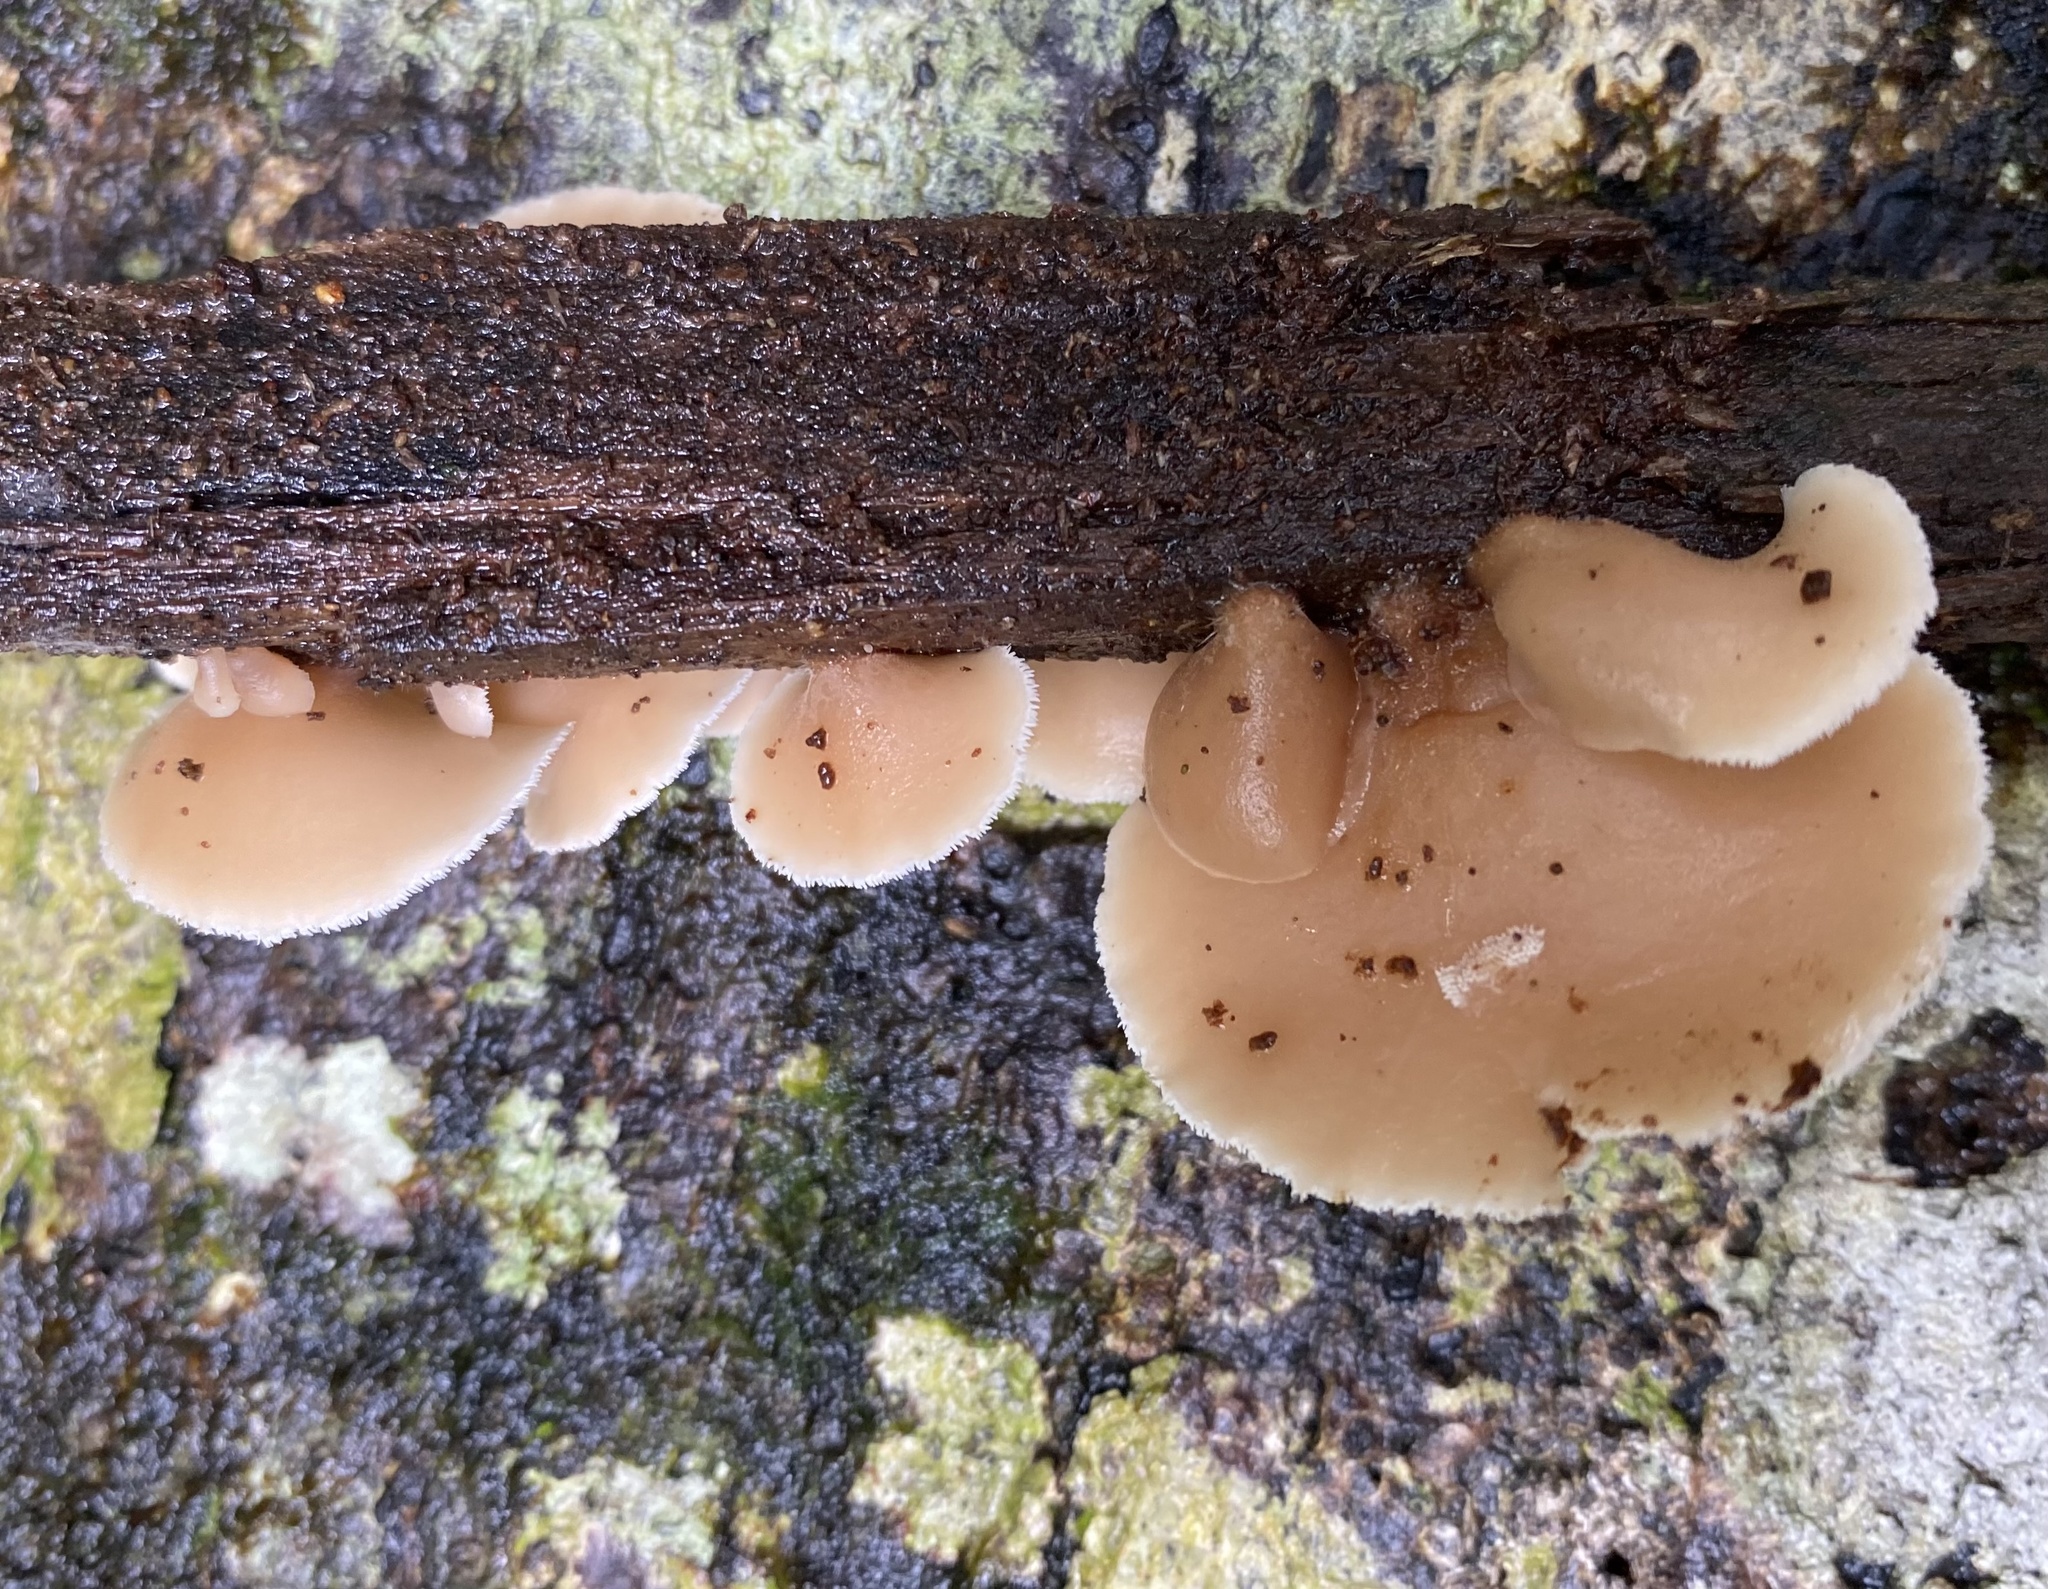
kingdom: Fungi
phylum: Basidiomycota
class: Agaricomycetes
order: Russulales
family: Auriscalpiaceae
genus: Auriscalpium
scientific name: Auriscalpium villipes
